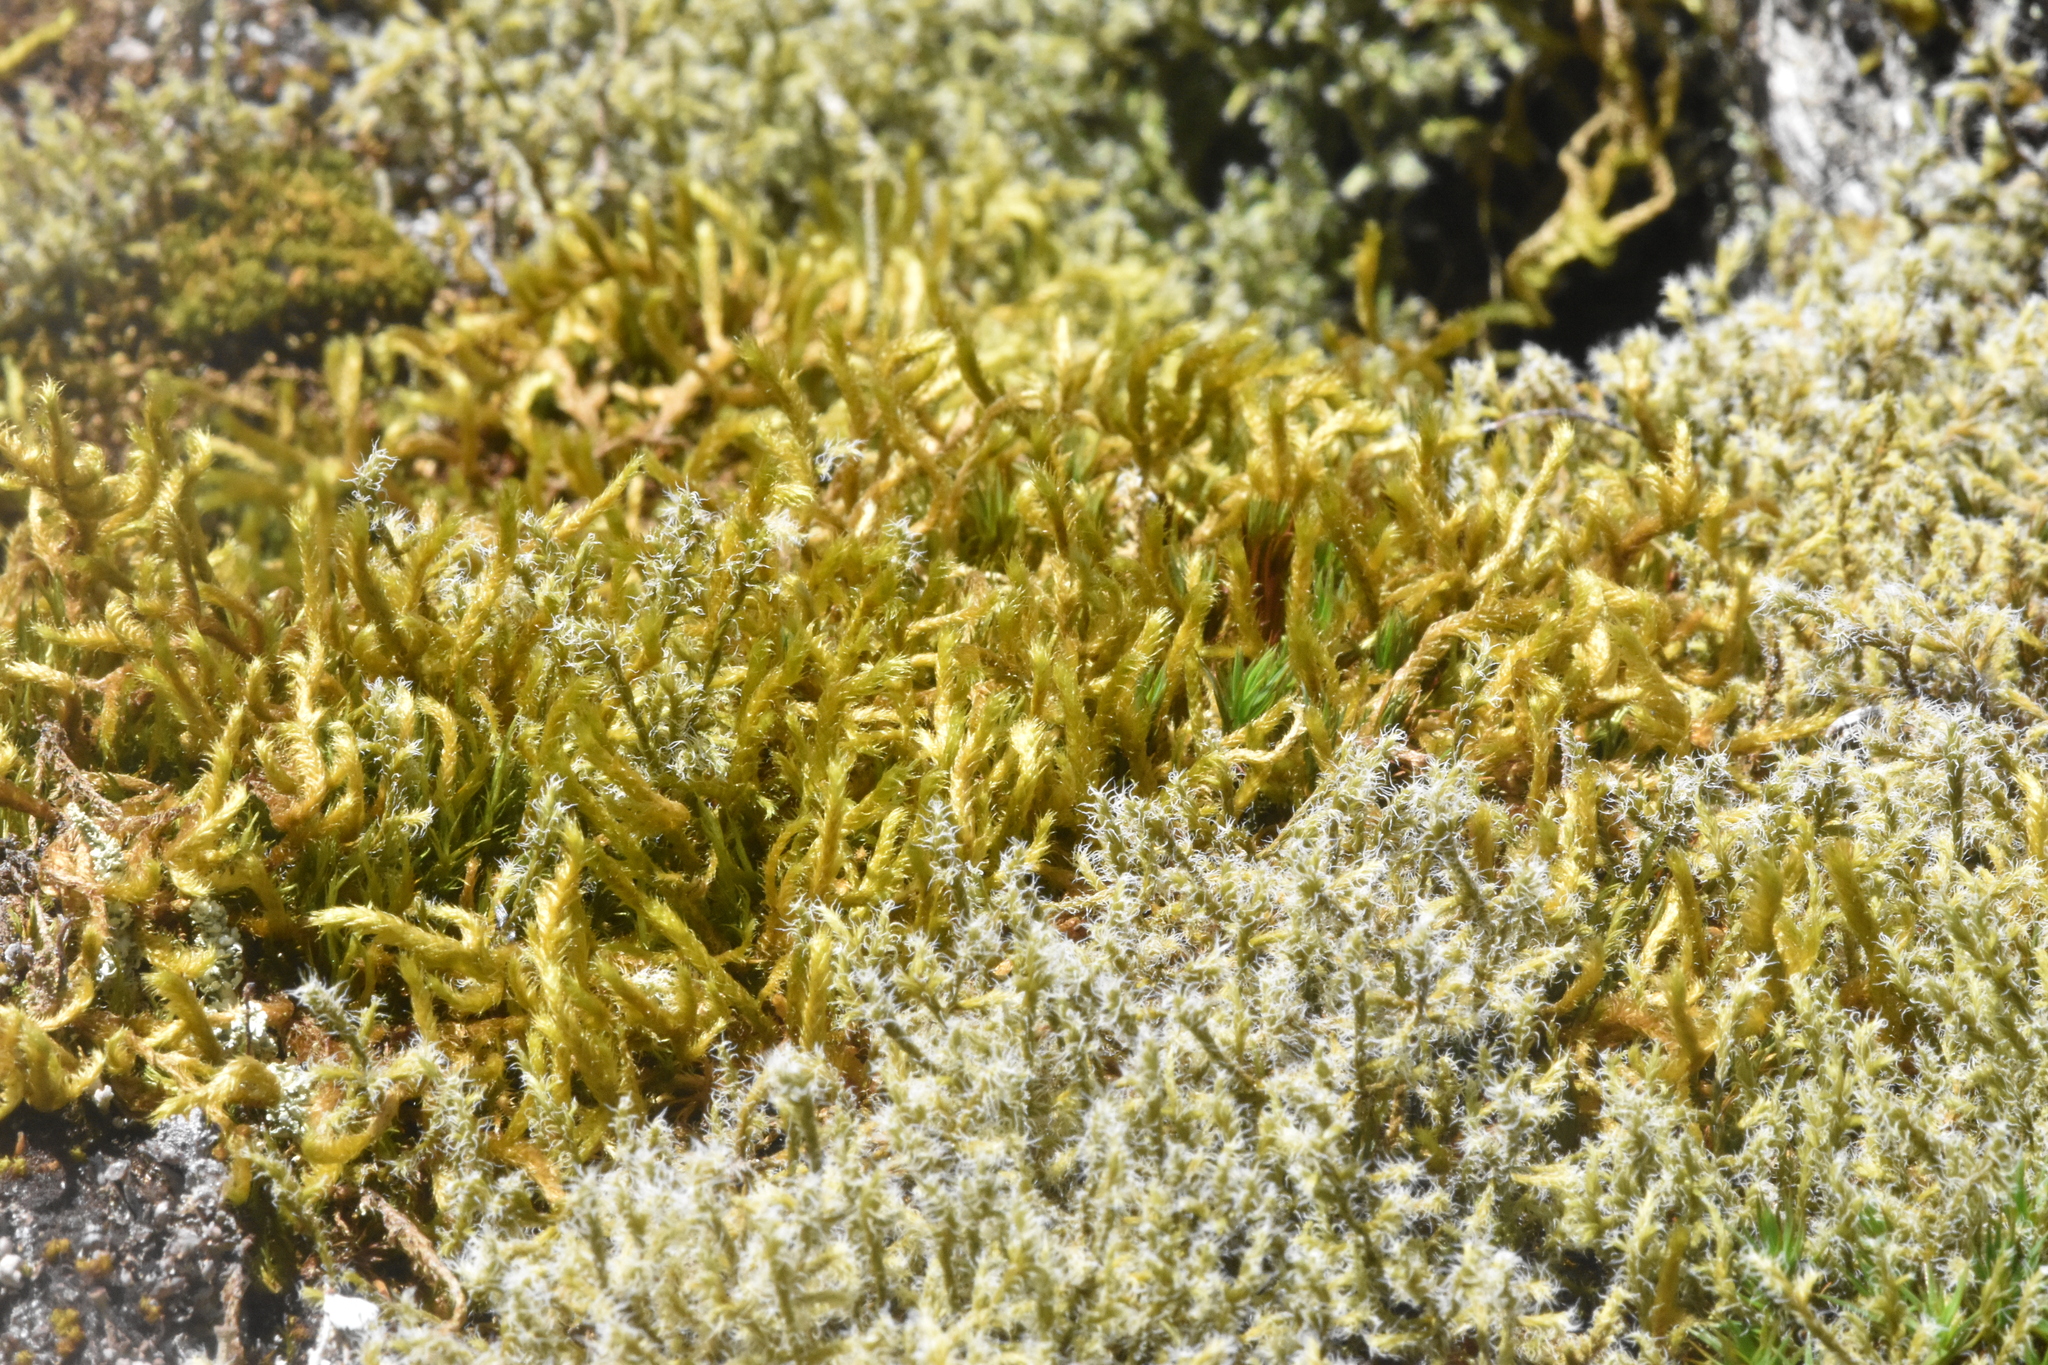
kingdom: Plantae
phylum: Bryophyta
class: Bryopsida
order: Hypnales
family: Antitrichiaceae
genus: Antitrichia
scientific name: Antitrichia curtipendula
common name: Pendulous wing-moss
